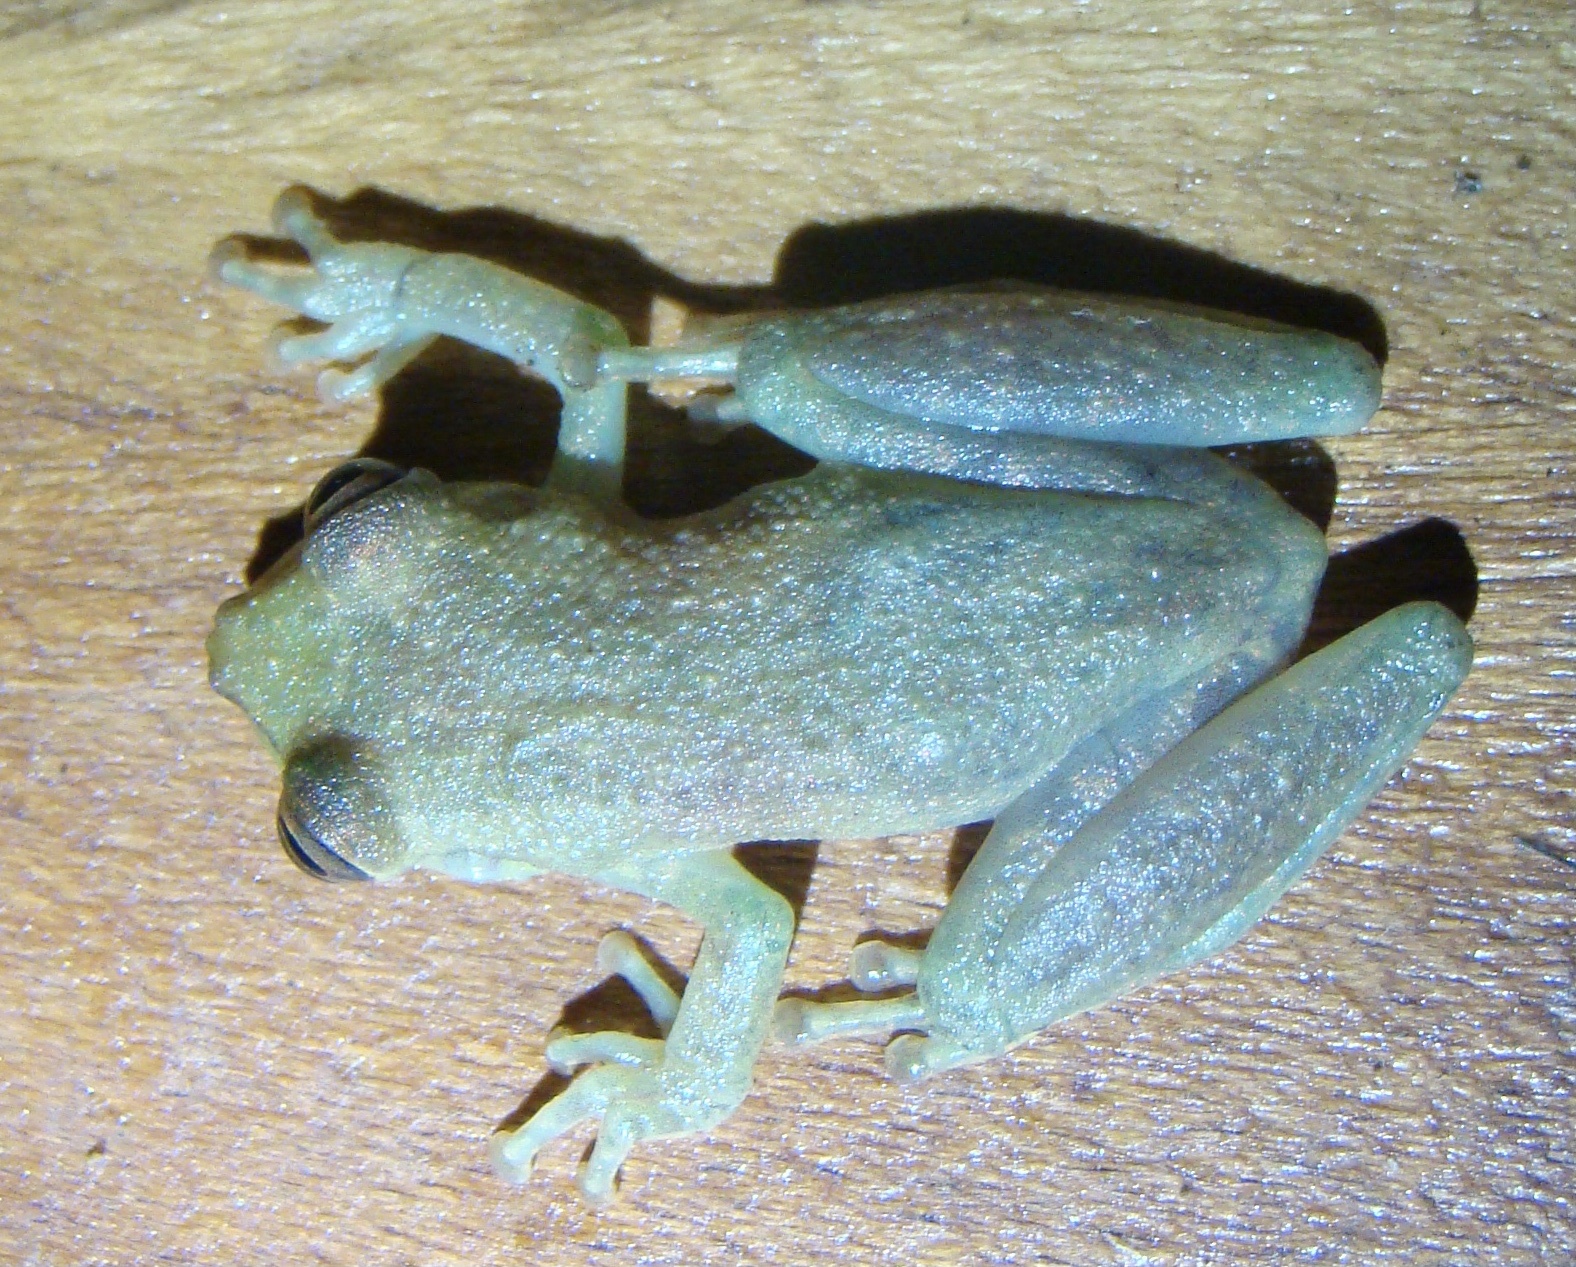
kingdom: Animalia
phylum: Chordata
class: Amphibia
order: Anura
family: Hylidae
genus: Scinax
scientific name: Scinax elaeochroa
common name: Sipurio snouted treefrog
